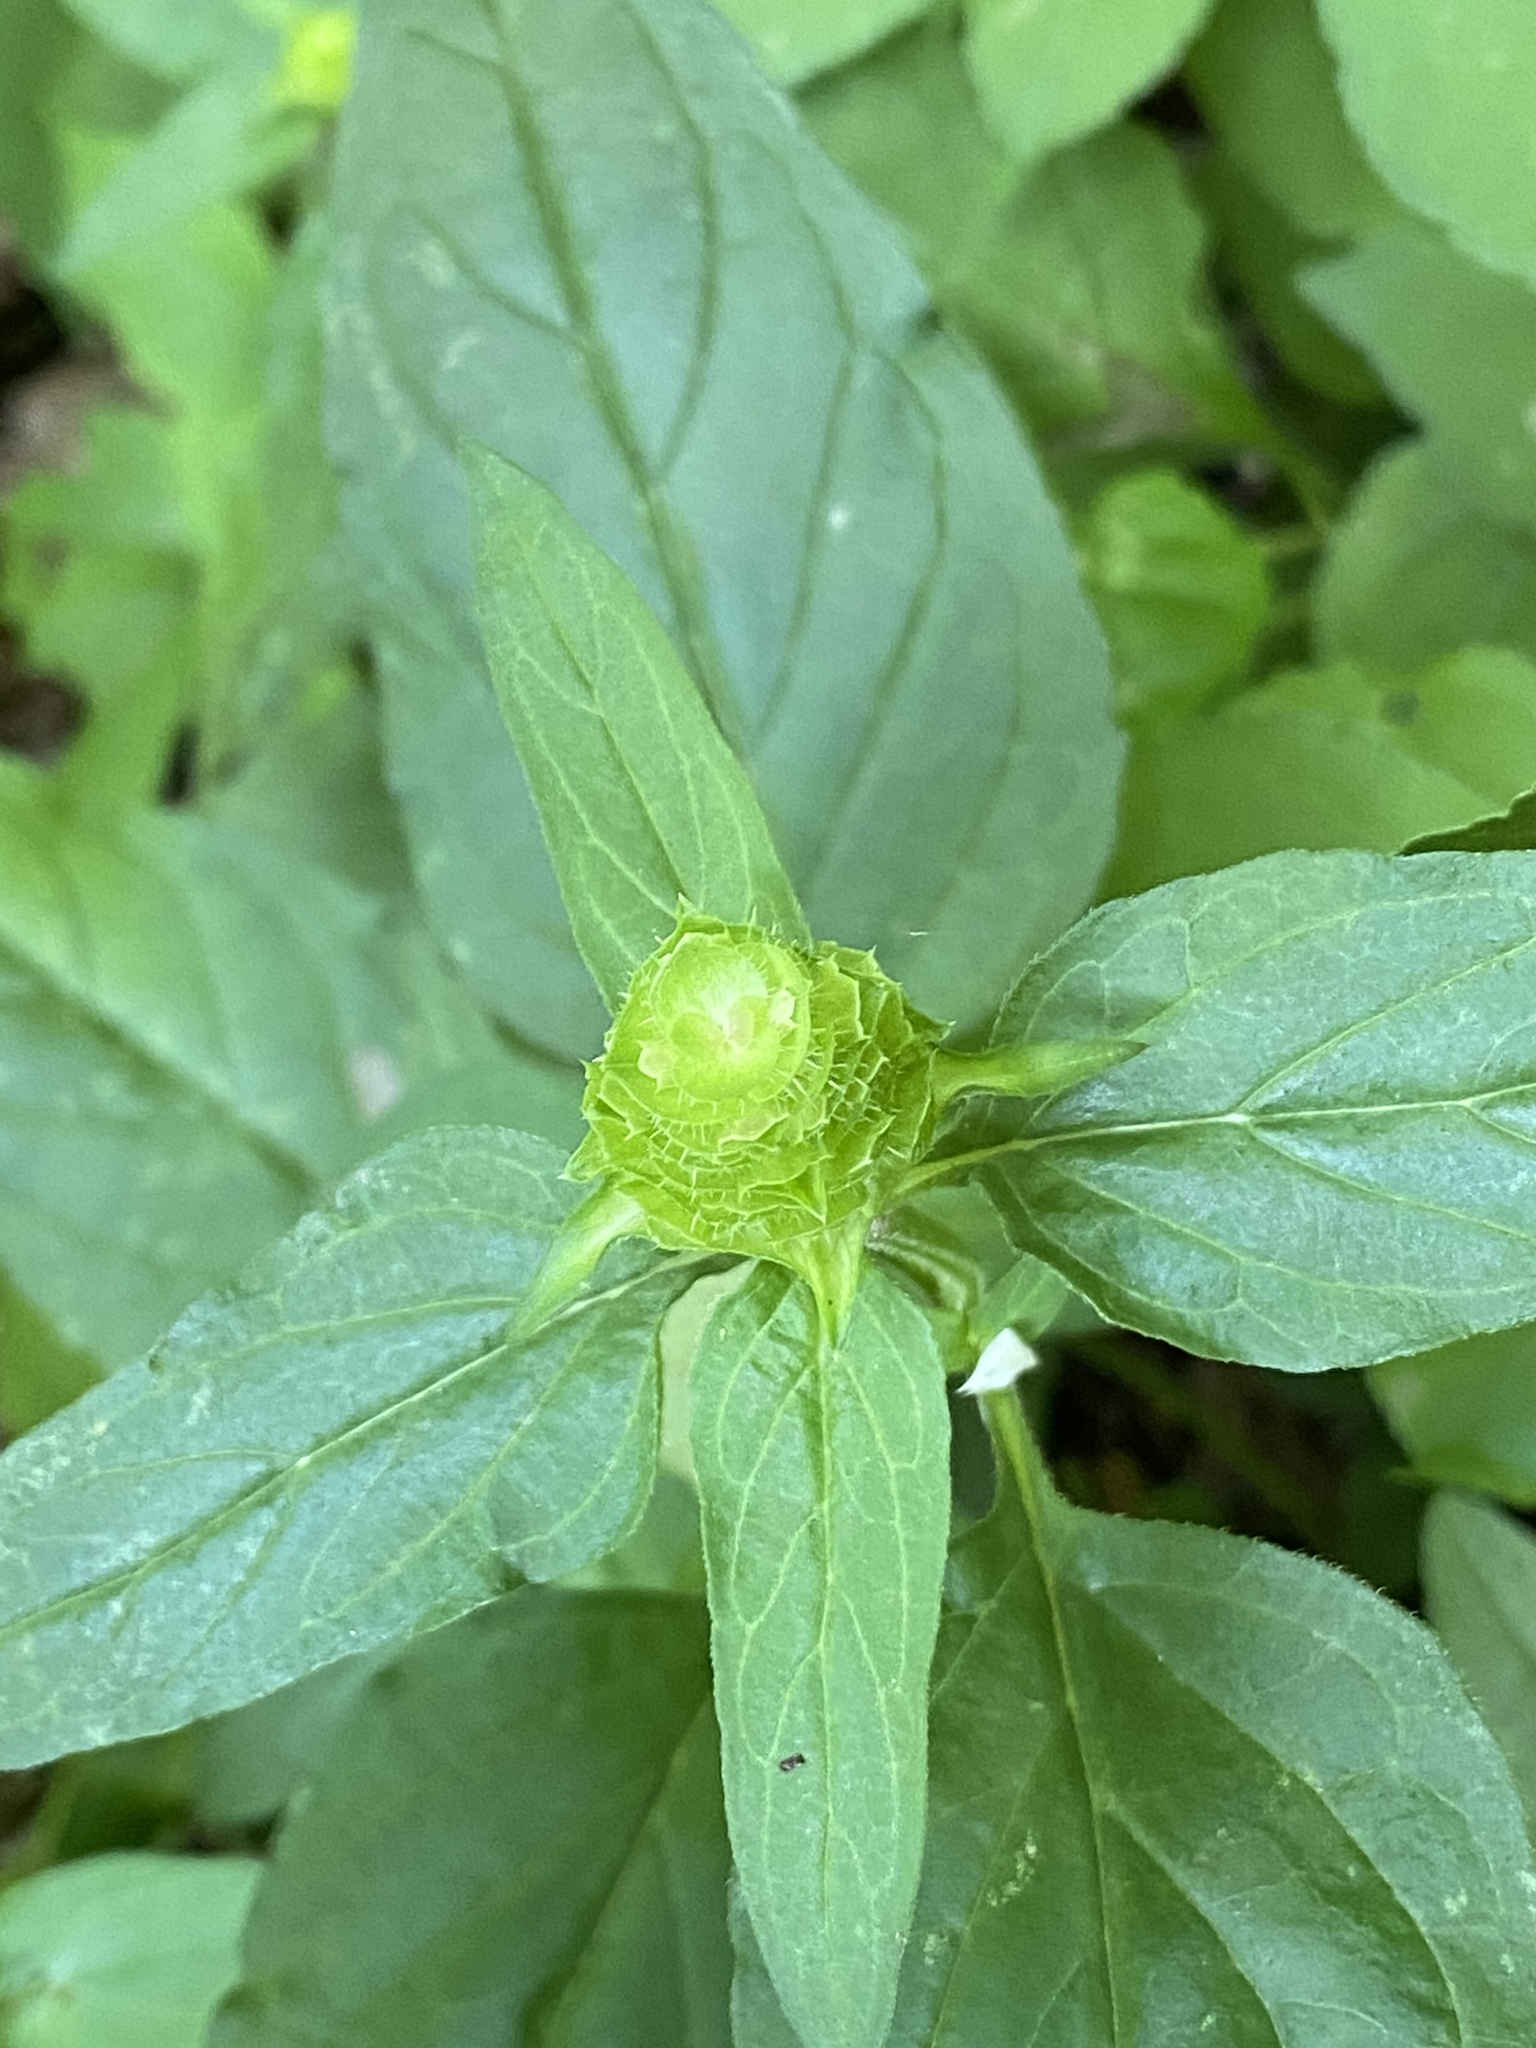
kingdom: Plantae
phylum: Tracheophyta
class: Magnoliopsida
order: Lamiales
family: Lamiaceae
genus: Prunella
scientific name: Prunella vulgaris
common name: Heal-all
